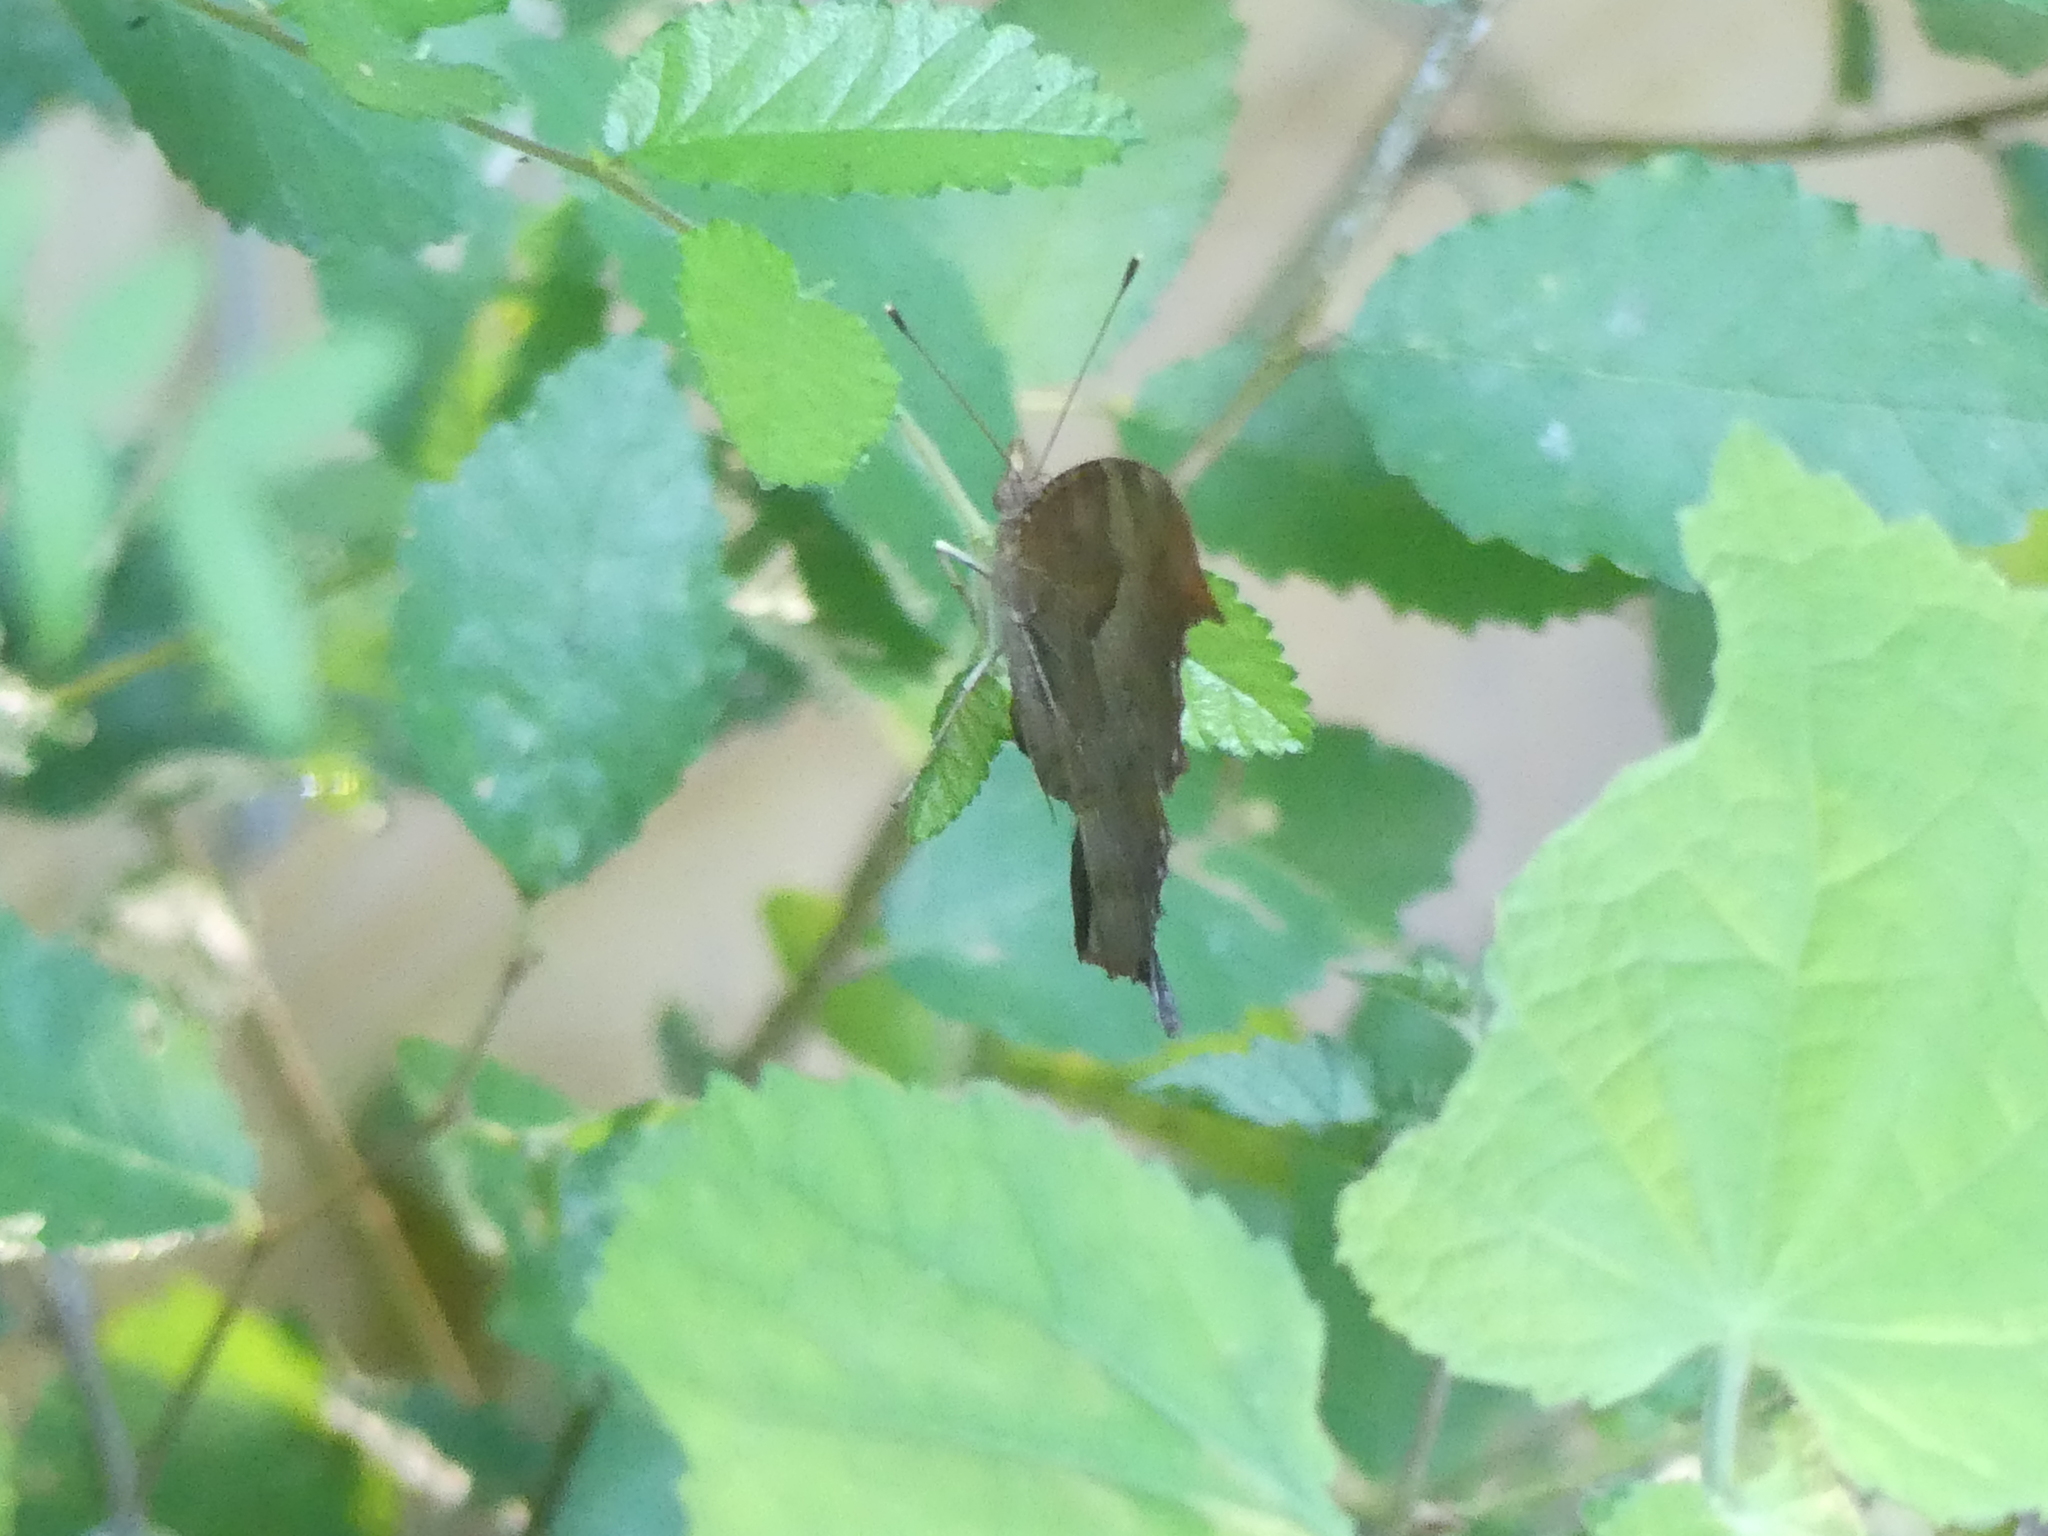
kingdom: Animalia
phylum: Arthropoda
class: Insecta
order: Lepidoptera
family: Nymphalidae
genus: Polygonia
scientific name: Polygonia interrogationis
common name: Question mark
